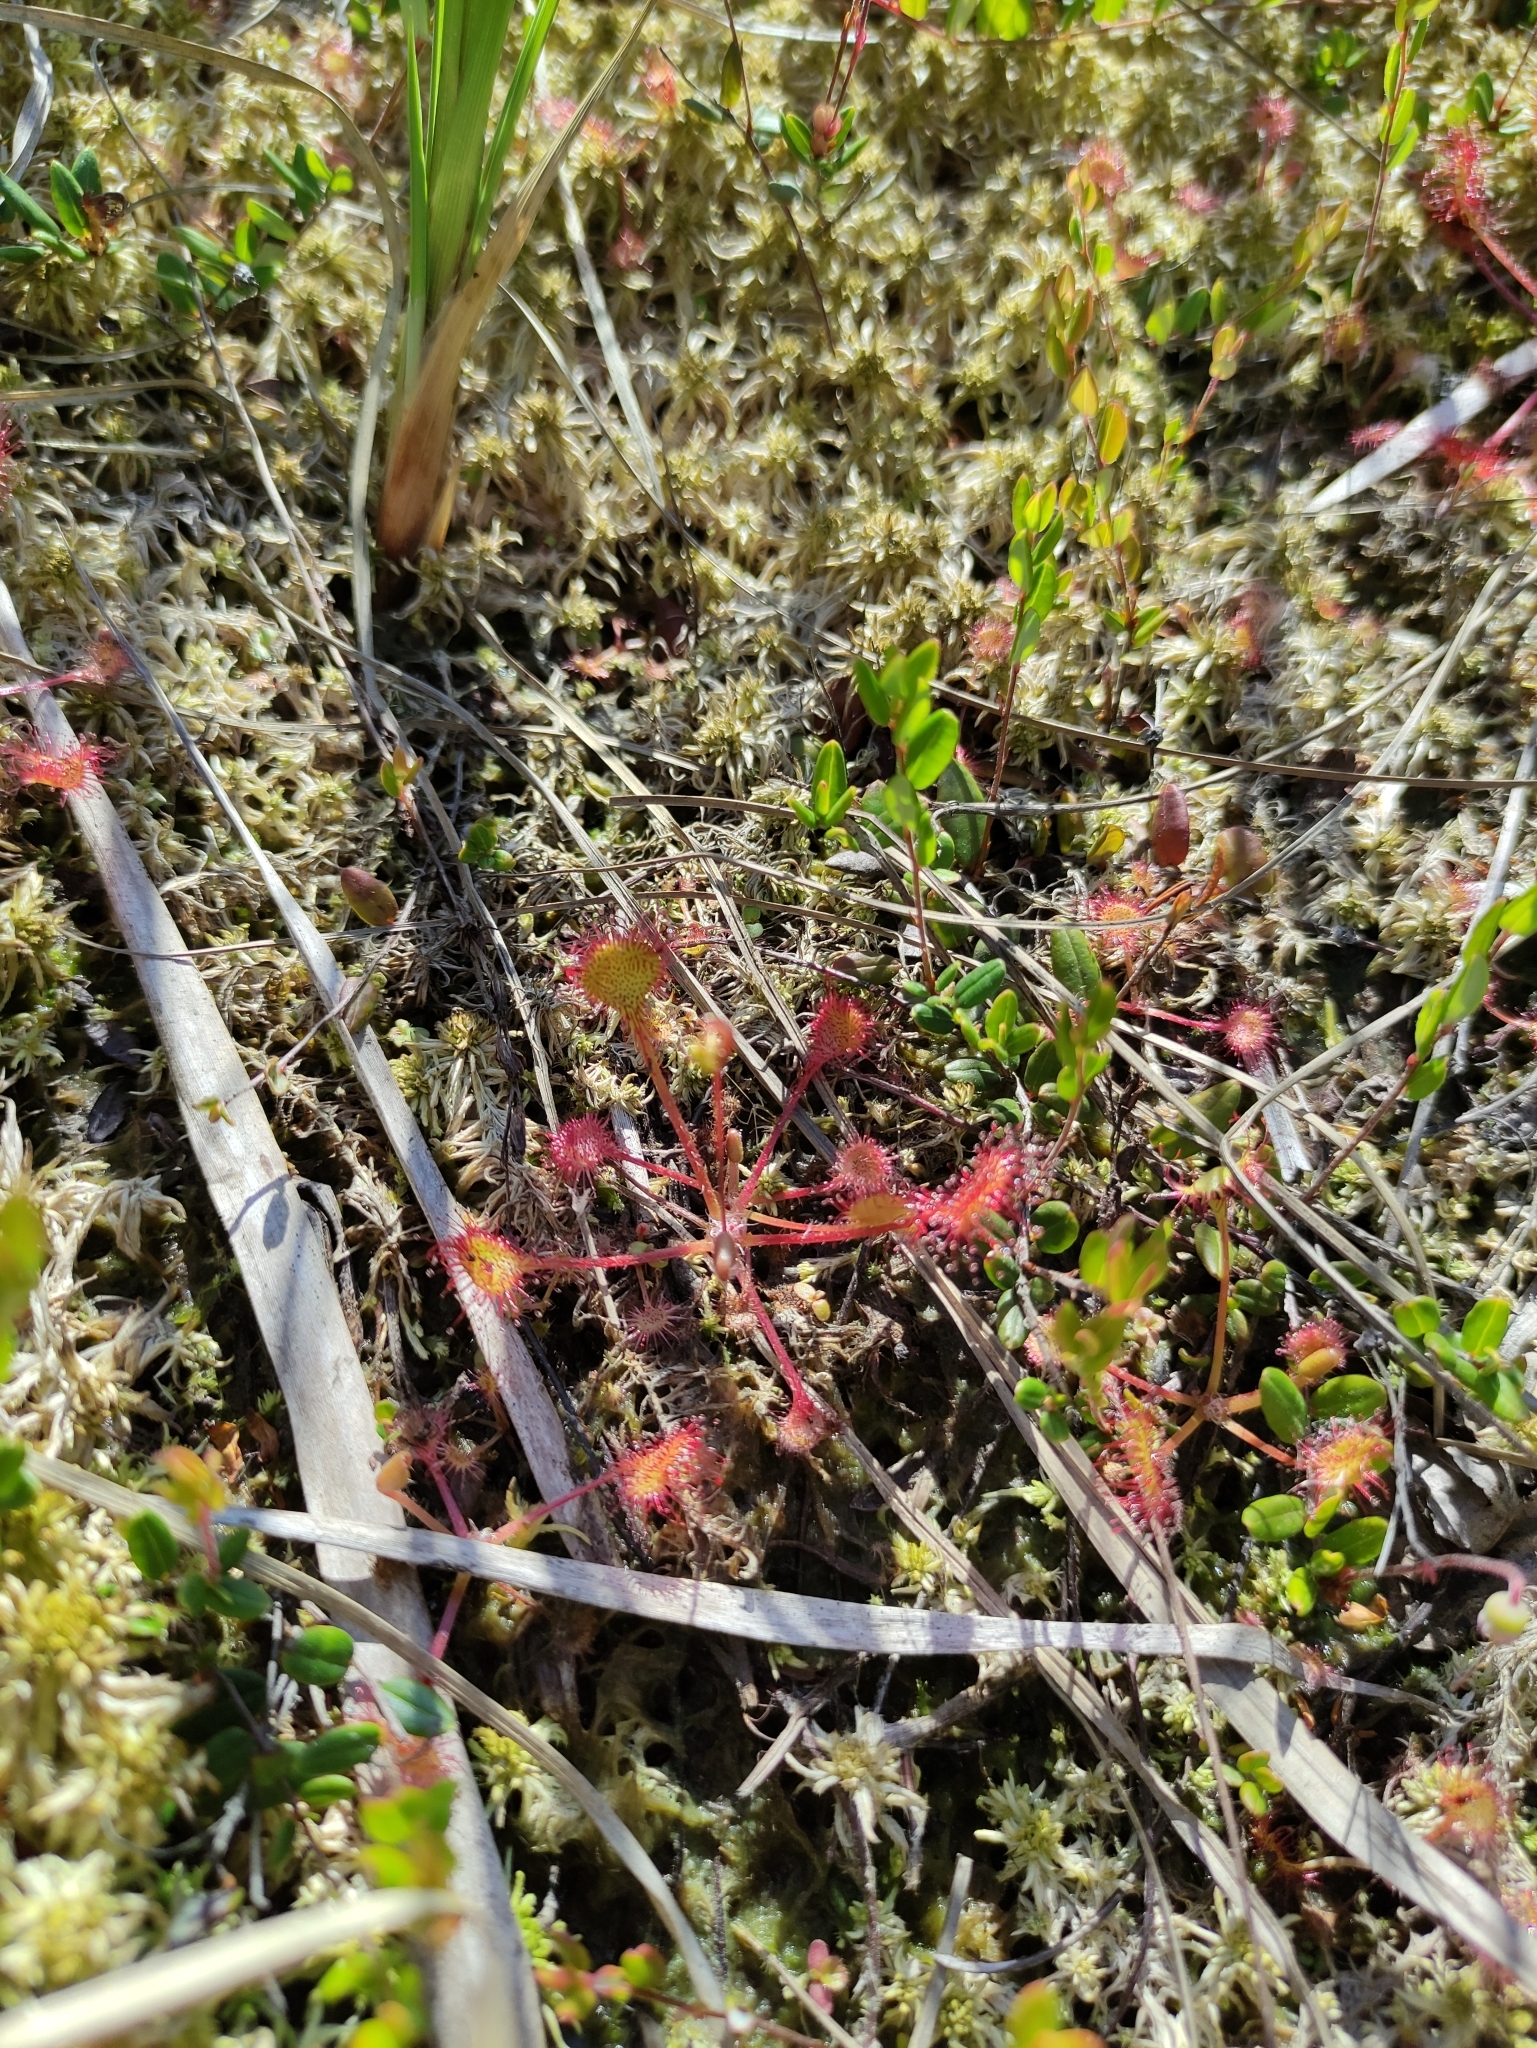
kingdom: Plantae
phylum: Tracheophyta
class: Magnoliopsida
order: Caryophyllales
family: Droseraceae
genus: Drosera
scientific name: Drosera rotundifolia
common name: Round-leaved sundew
